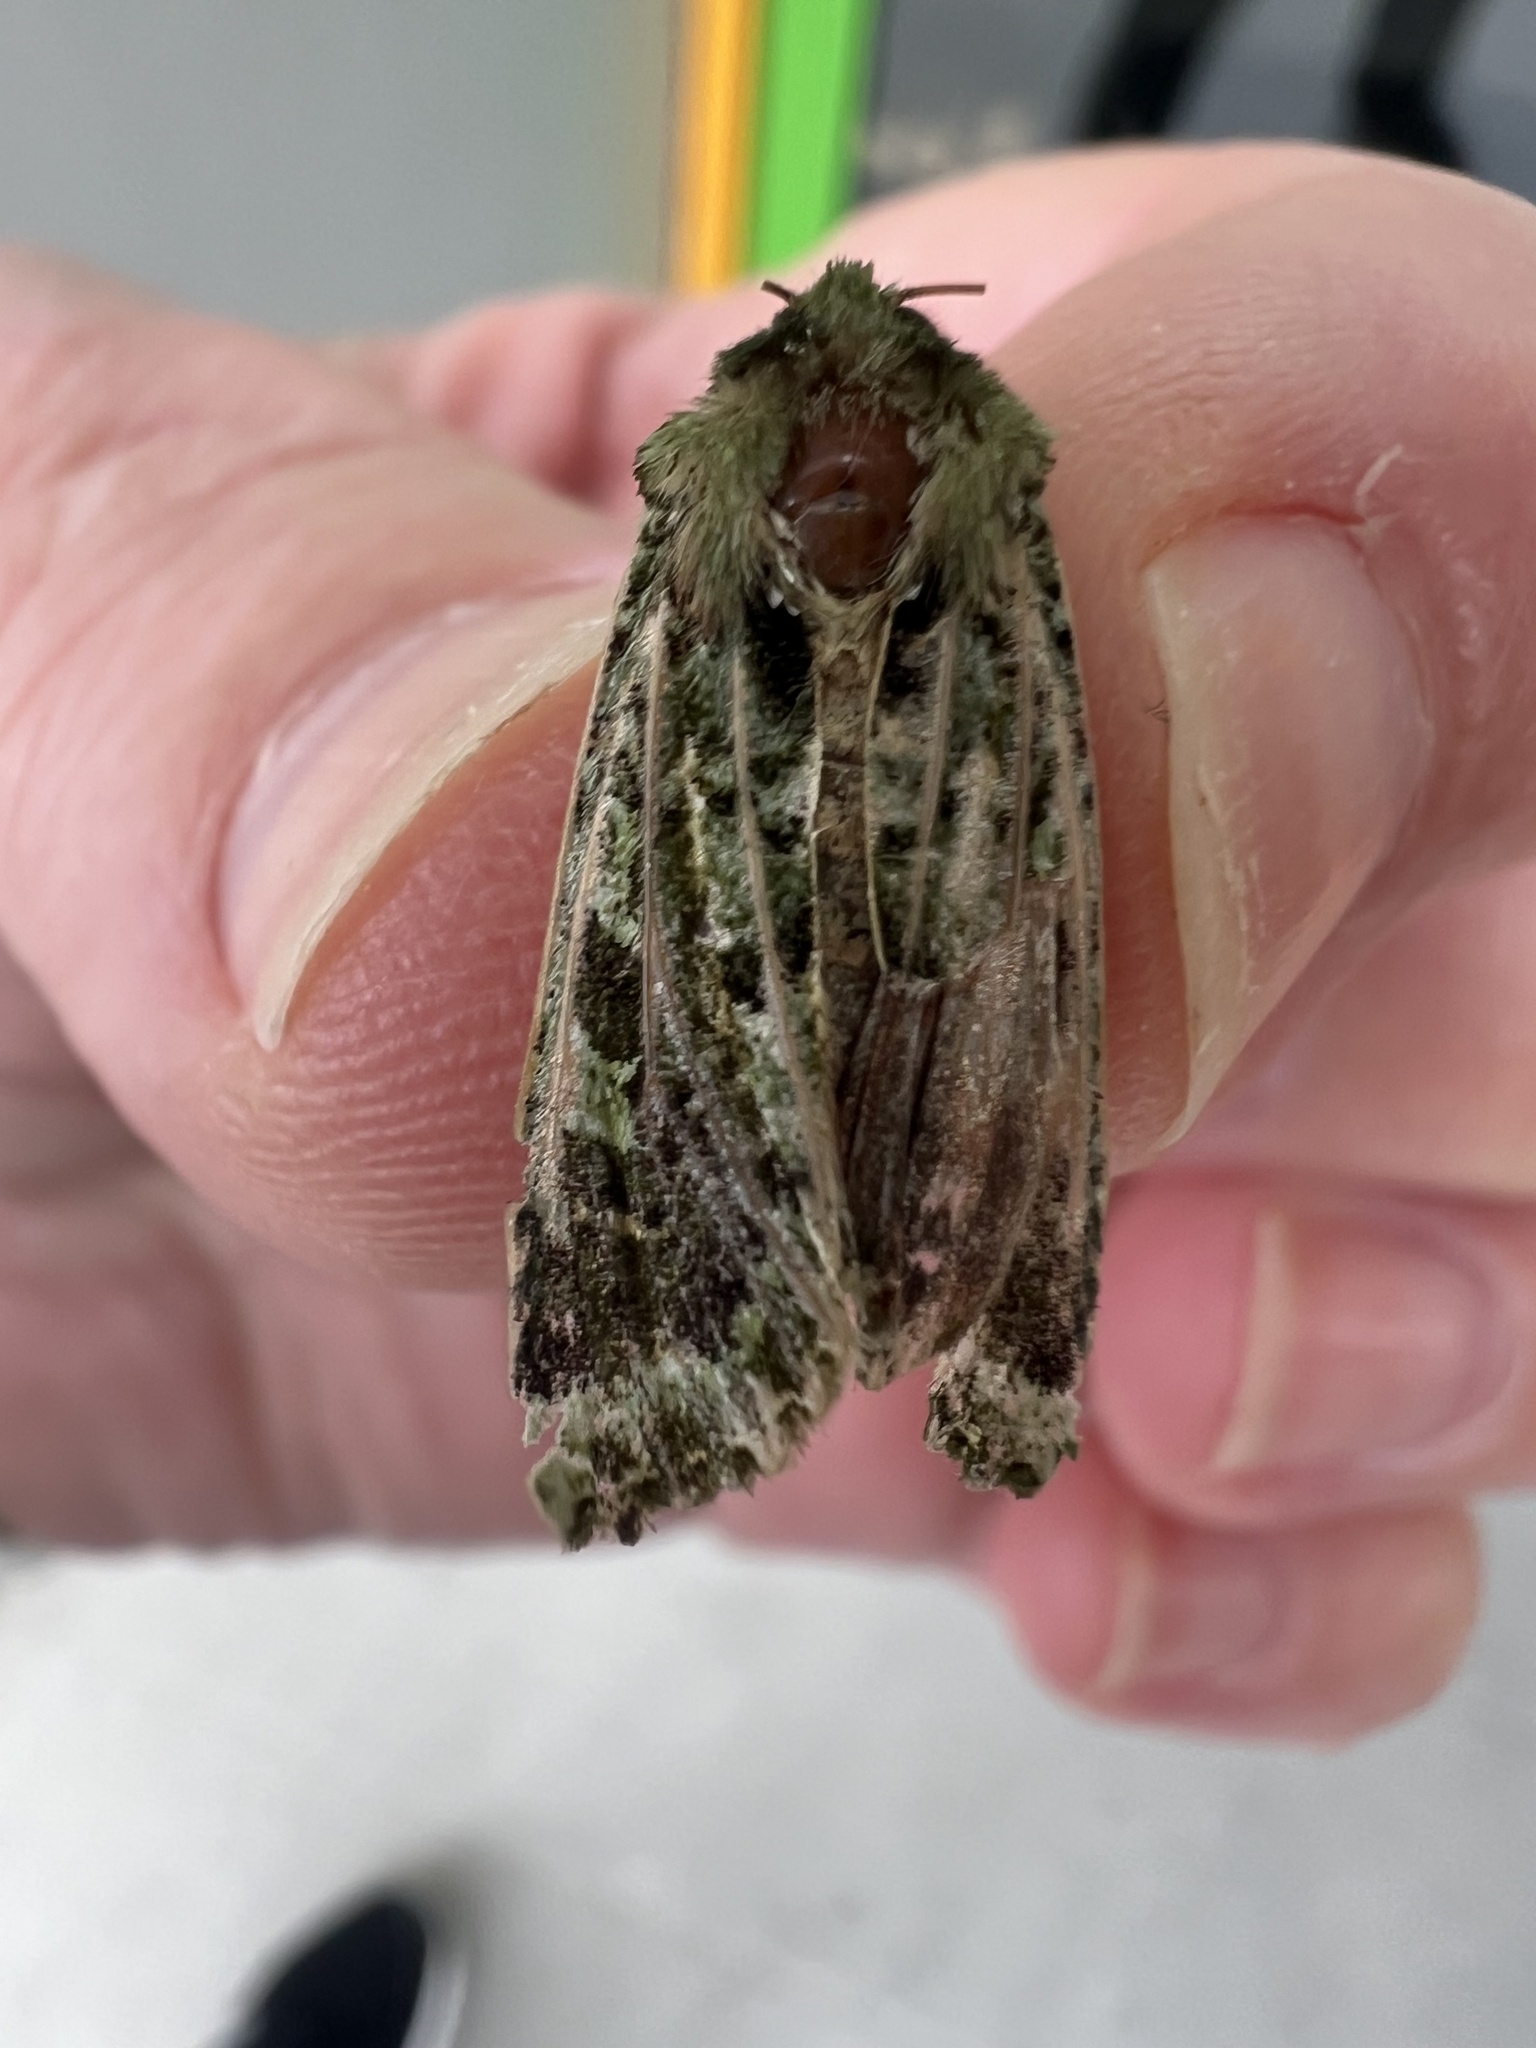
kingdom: Animalia
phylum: Arthropoda
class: Insecta
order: Lepidoptera
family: Noctuidae
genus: Feredayia
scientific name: Feredayia grammosa
